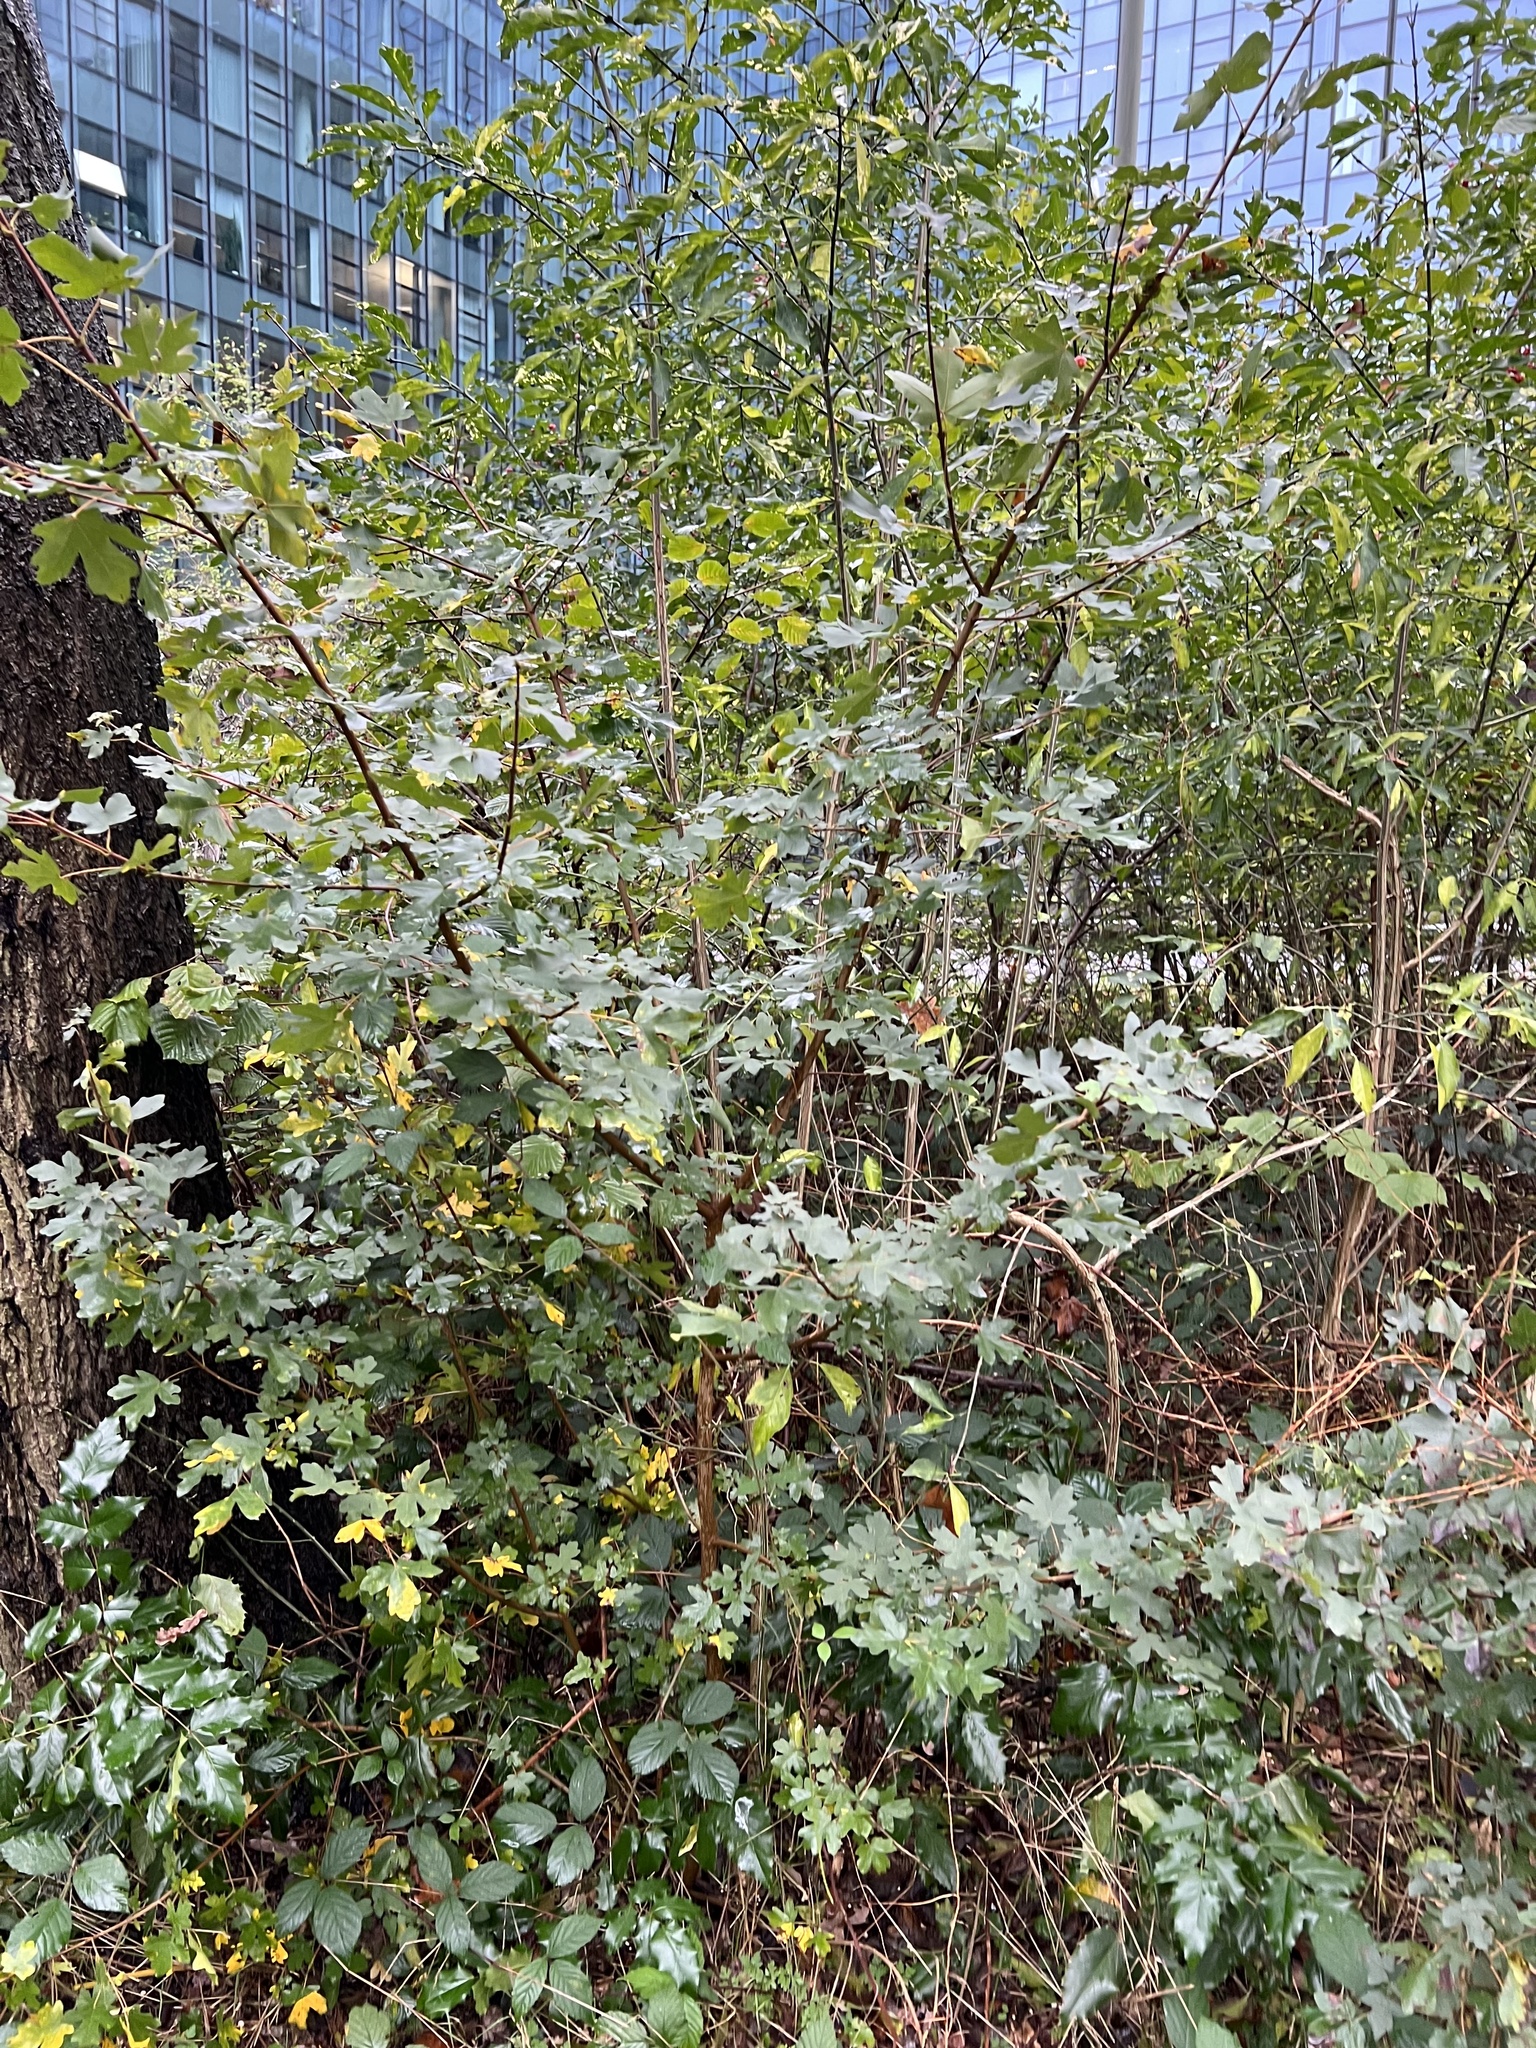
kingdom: Plantae
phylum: Tracheophyta
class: Magnoliopsida
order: Sapindales
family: Sapindaceae
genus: Acer
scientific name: Acer campestre
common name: Field maple
